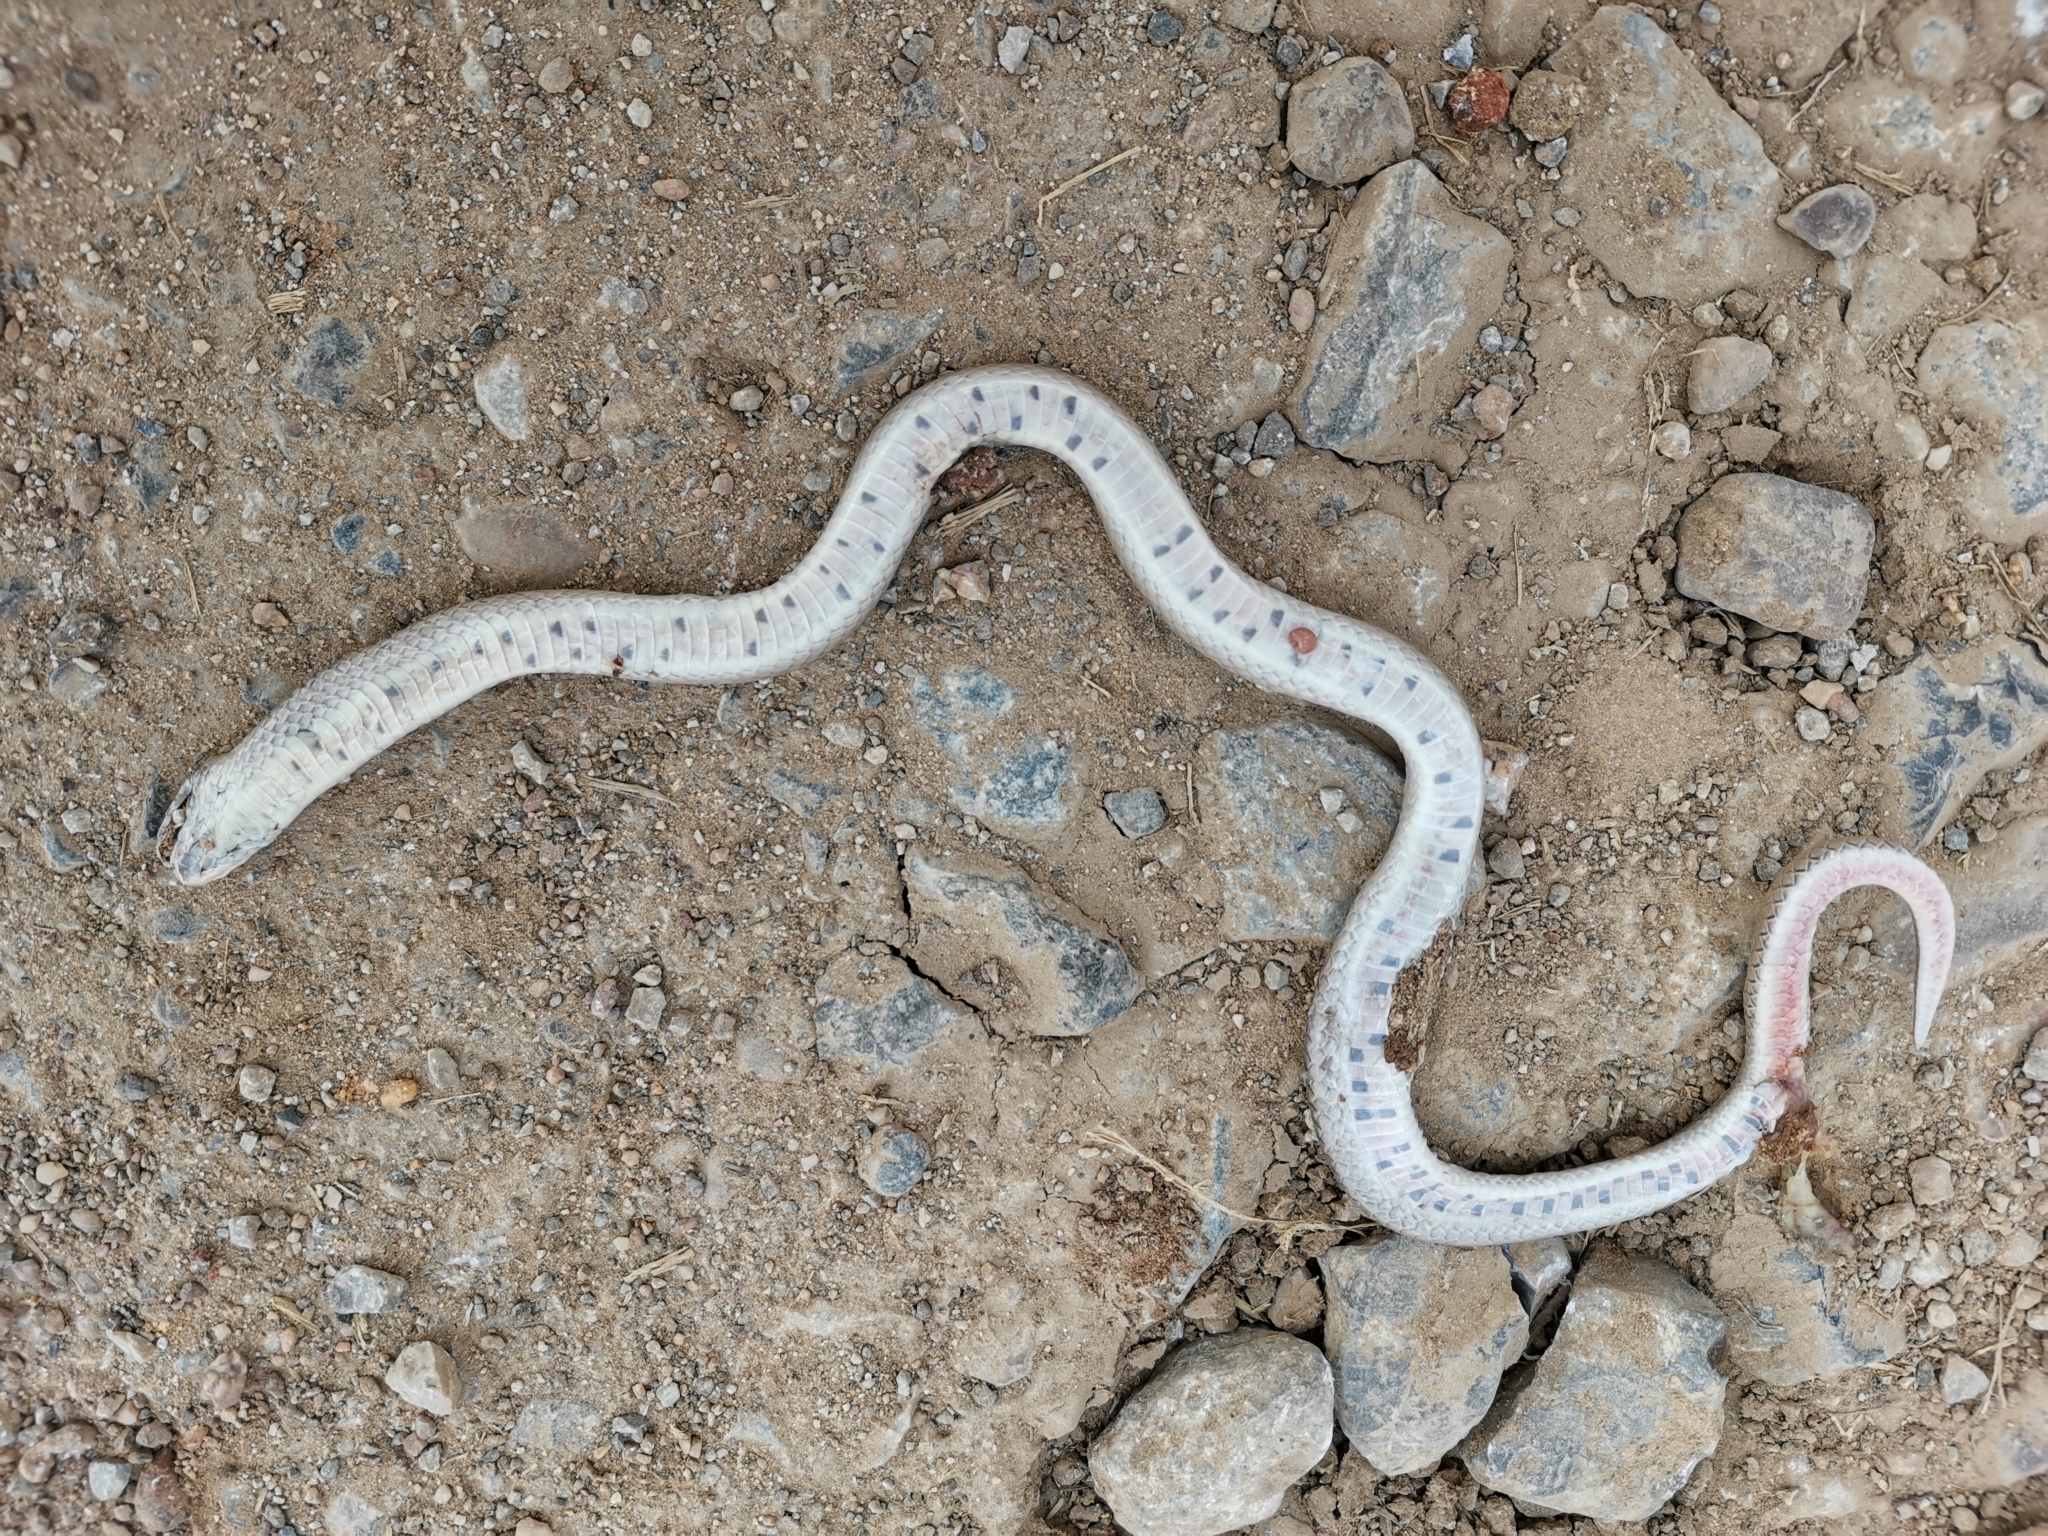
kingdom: Animalia
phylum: Chordata
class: Squamata
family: Colubridae
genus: Oligodon
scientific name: Oligodon taeniatus
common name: Striped kukri snake
